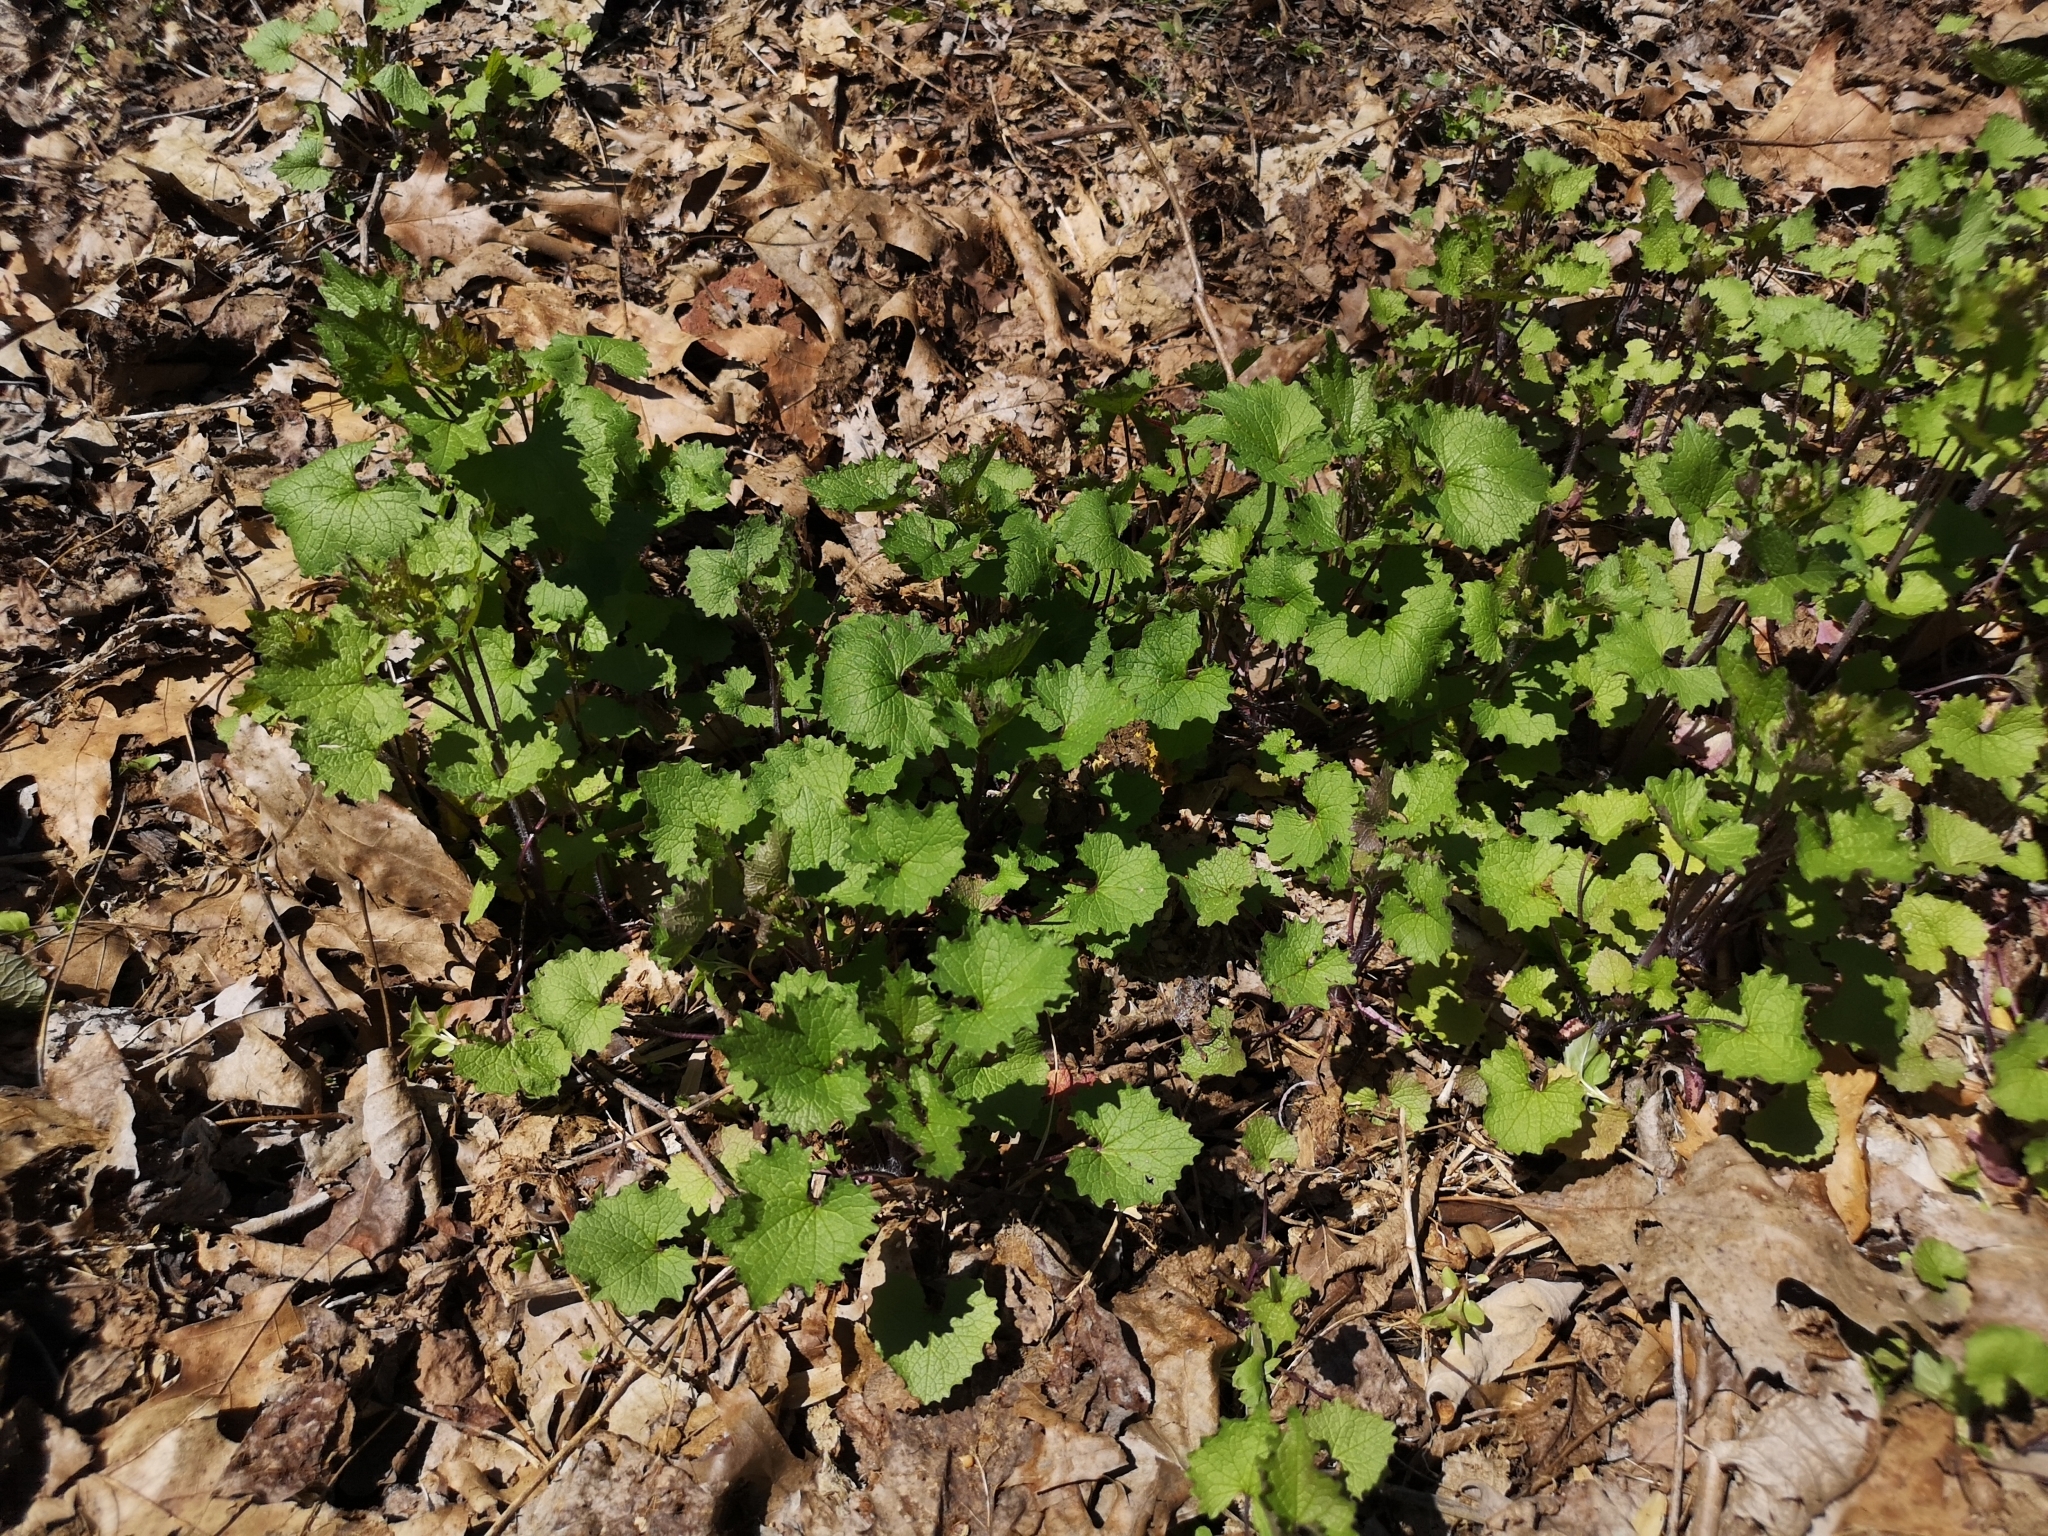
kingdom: Plantae
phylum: Tracheophyta
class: Magnoliopsida
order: Brassicales
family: Brassicaceae
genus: Alliaria
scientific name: Alliaria petiolata
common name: Garlic mustard
